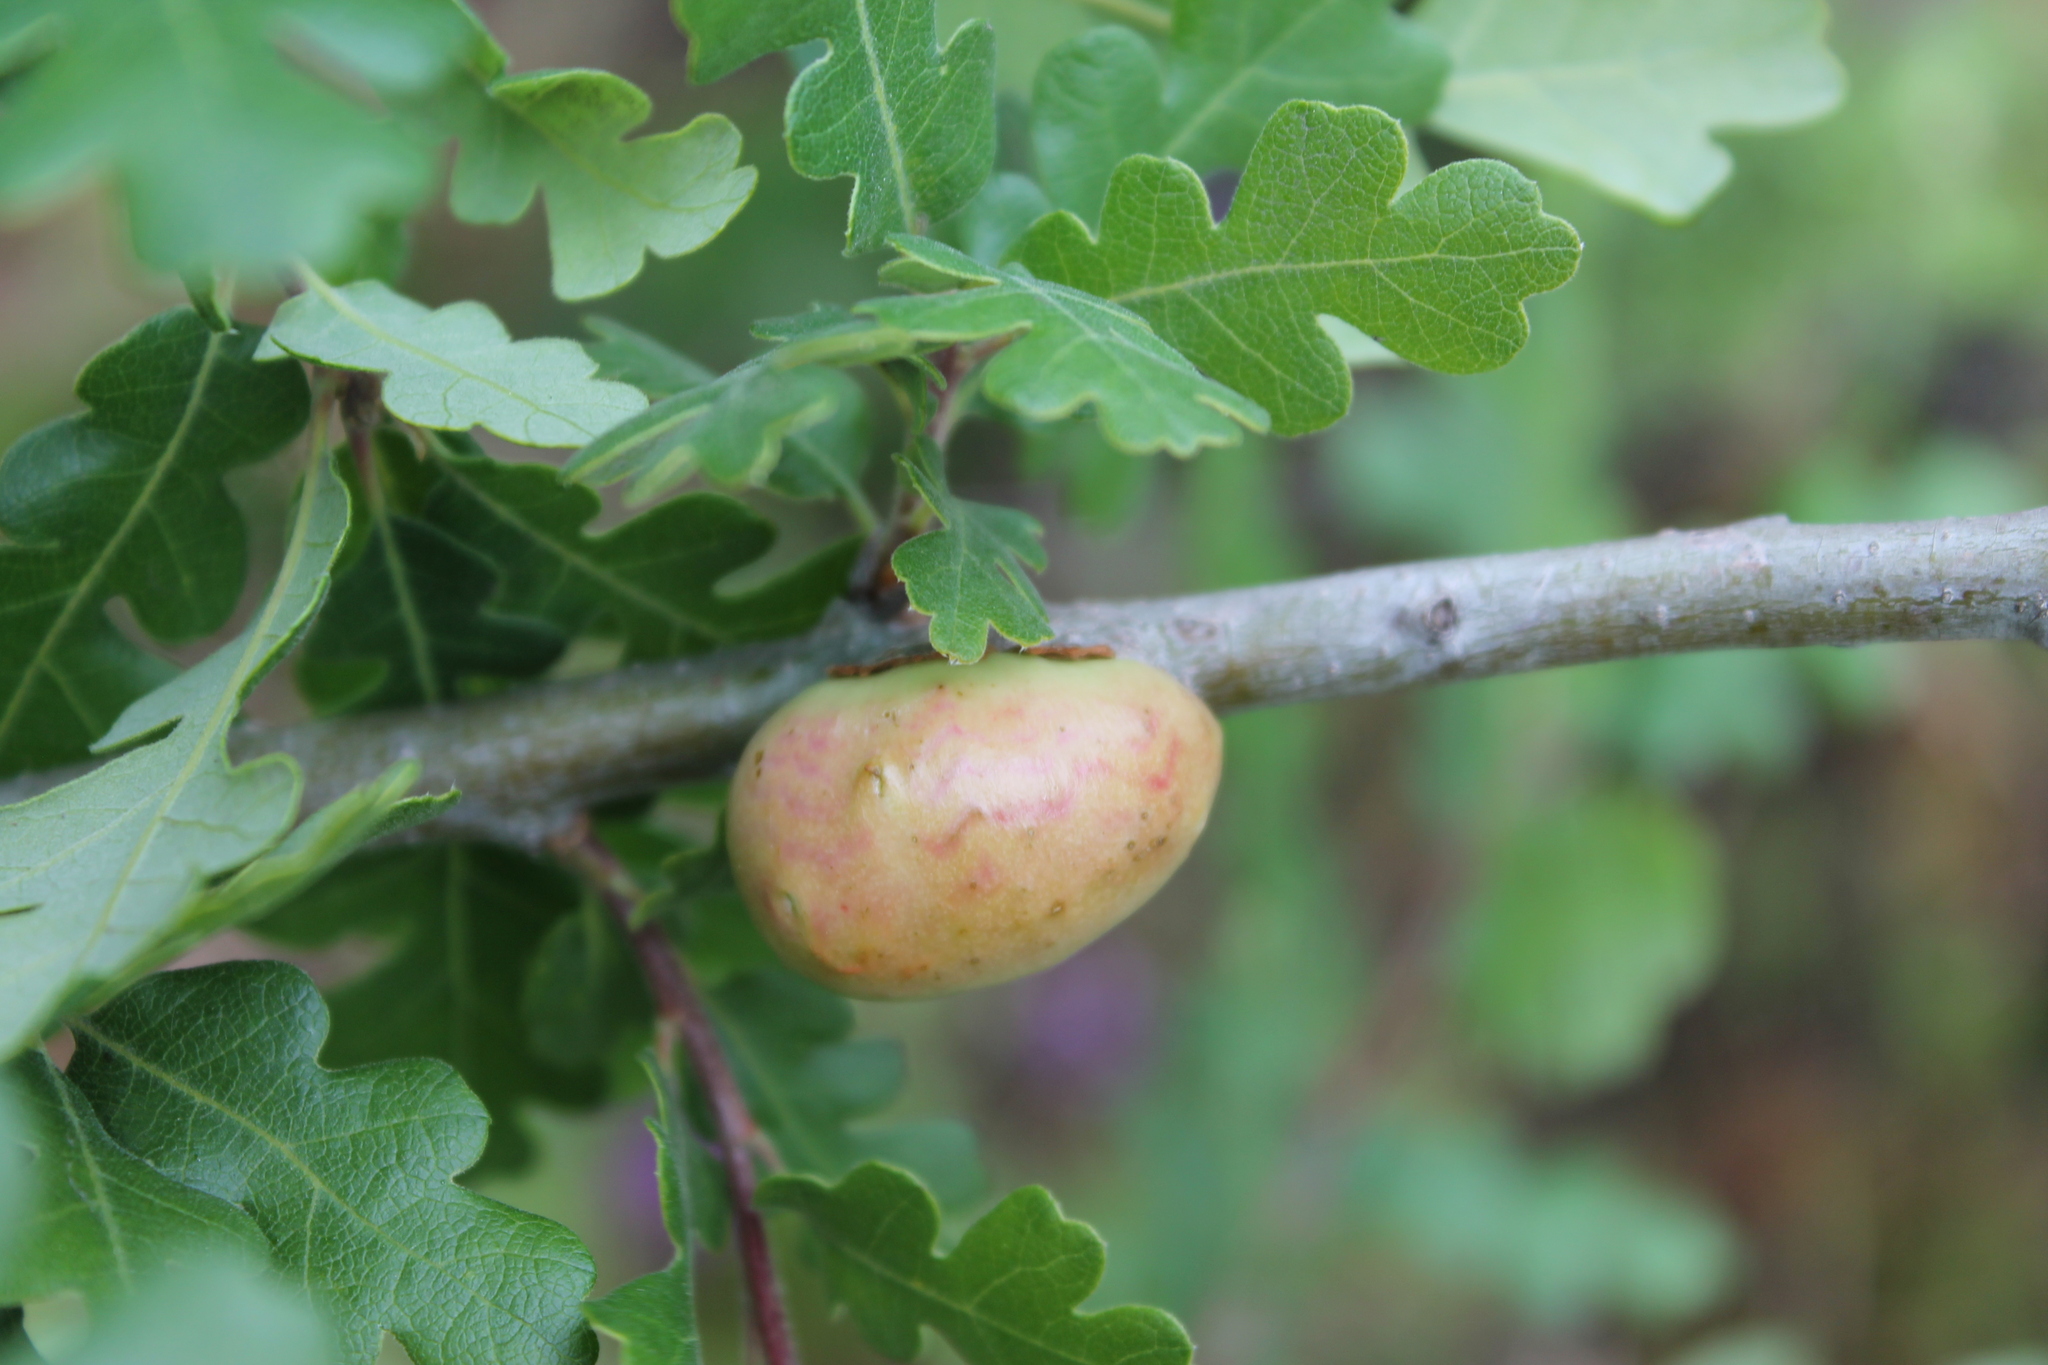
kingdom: Animalia
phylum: Arthropoda
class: Insecta
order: Hymenoptera
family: Cynipidae
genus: Andricus
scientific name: Andricus quercuscalifornicus
